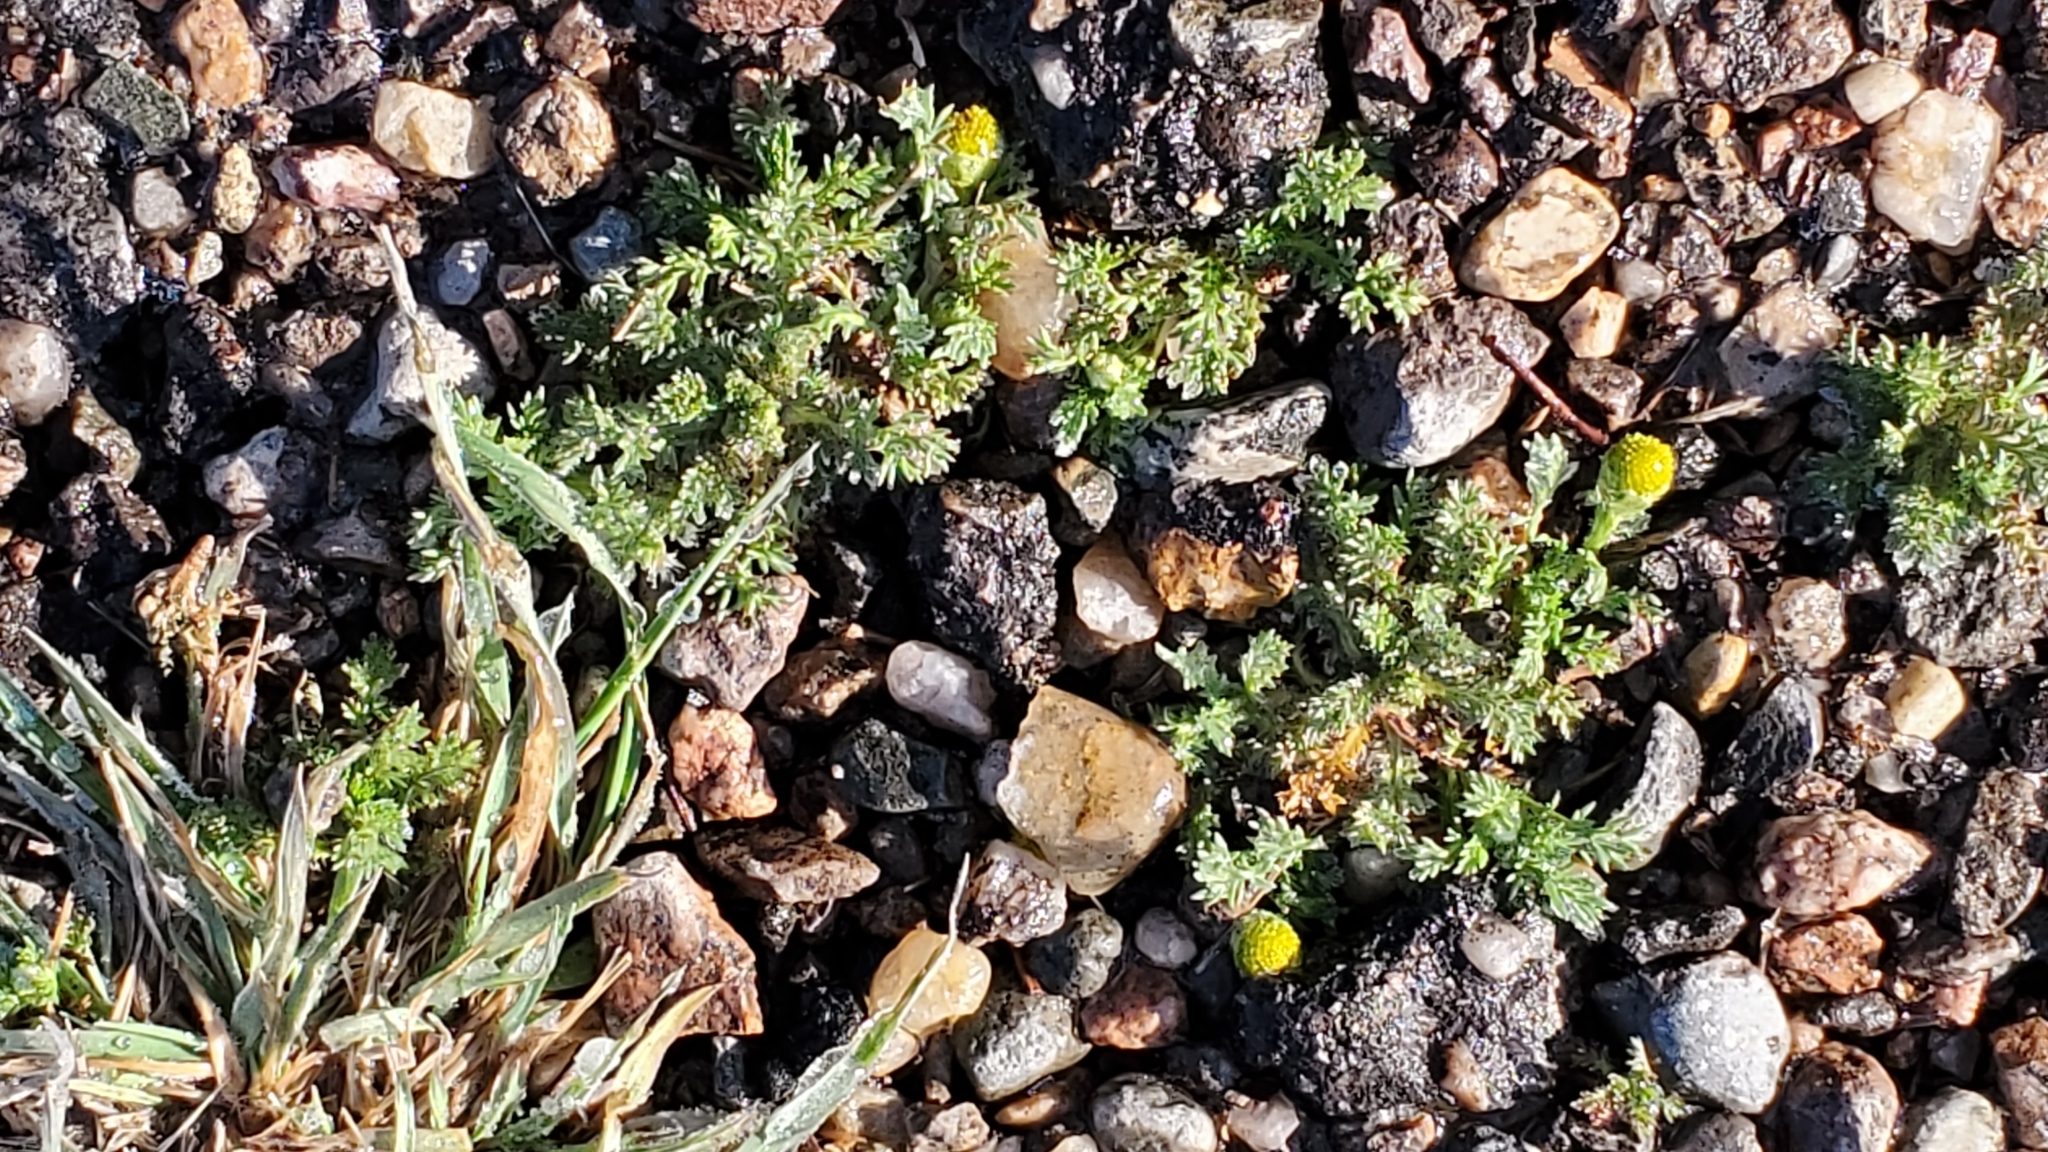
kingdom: Plantae
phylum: Tracheophyta
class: Magnoliopsida
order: Asterales
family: Asteraceae
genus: Matricaria
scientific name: Matricaria discoidea
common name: Disc mayweed
